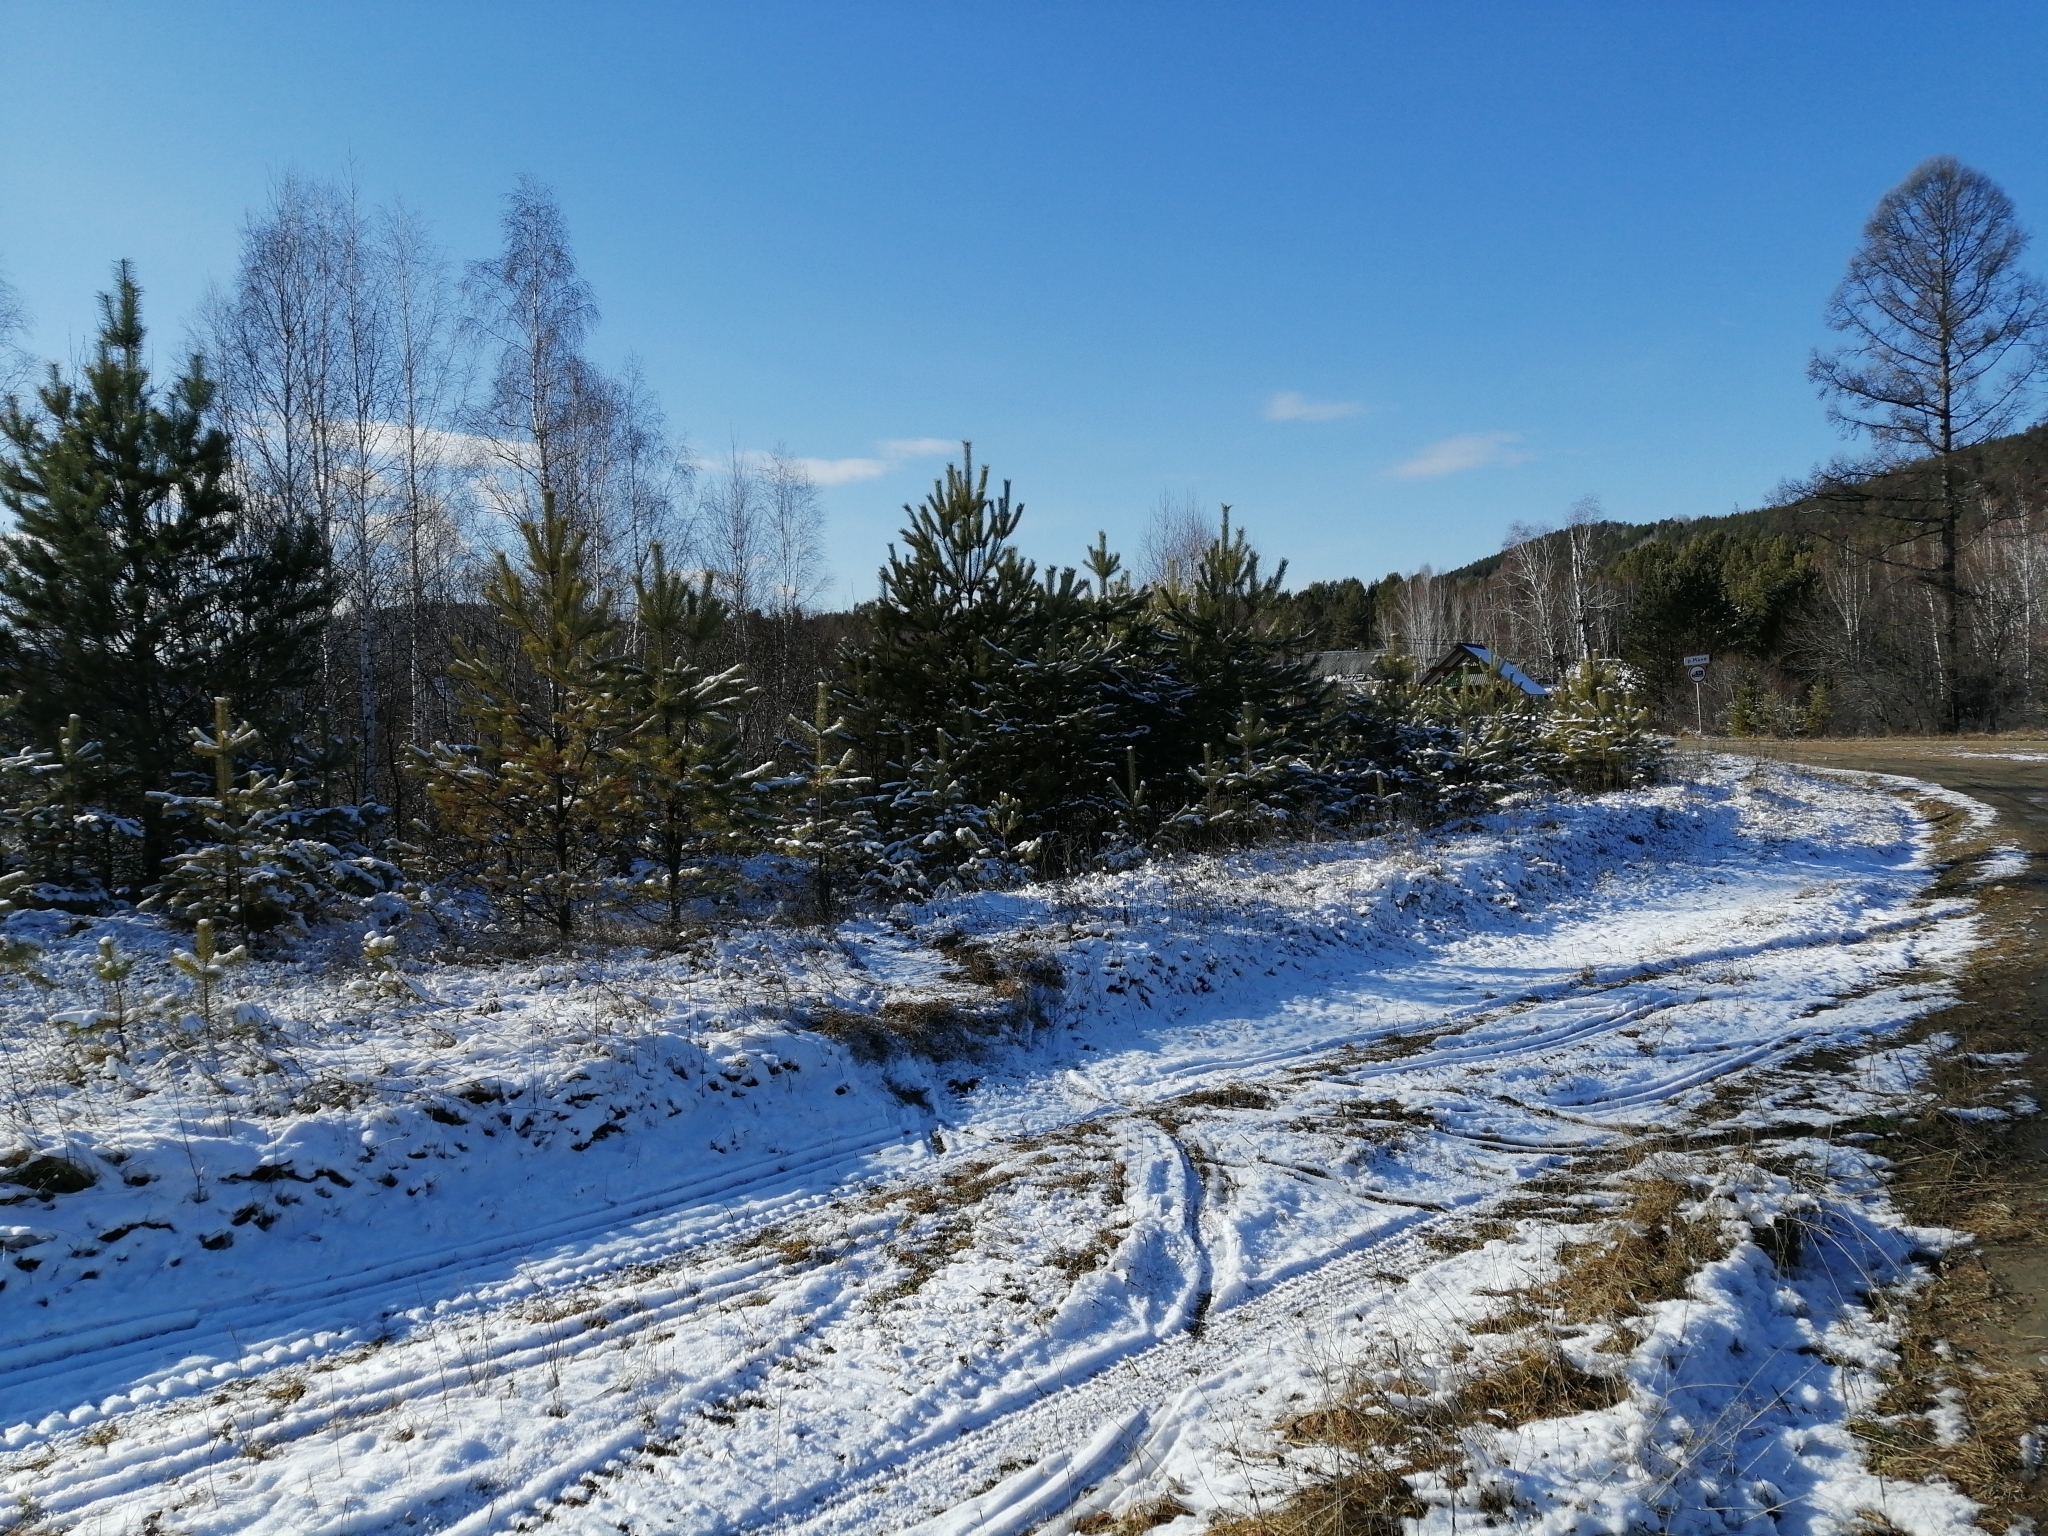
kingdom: Plantae
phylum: Tracheophyta
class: Pinopsida
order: Pinales
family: Pinaceae
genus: Pinus
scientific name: Pinus sylvestris
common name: Scots pine
